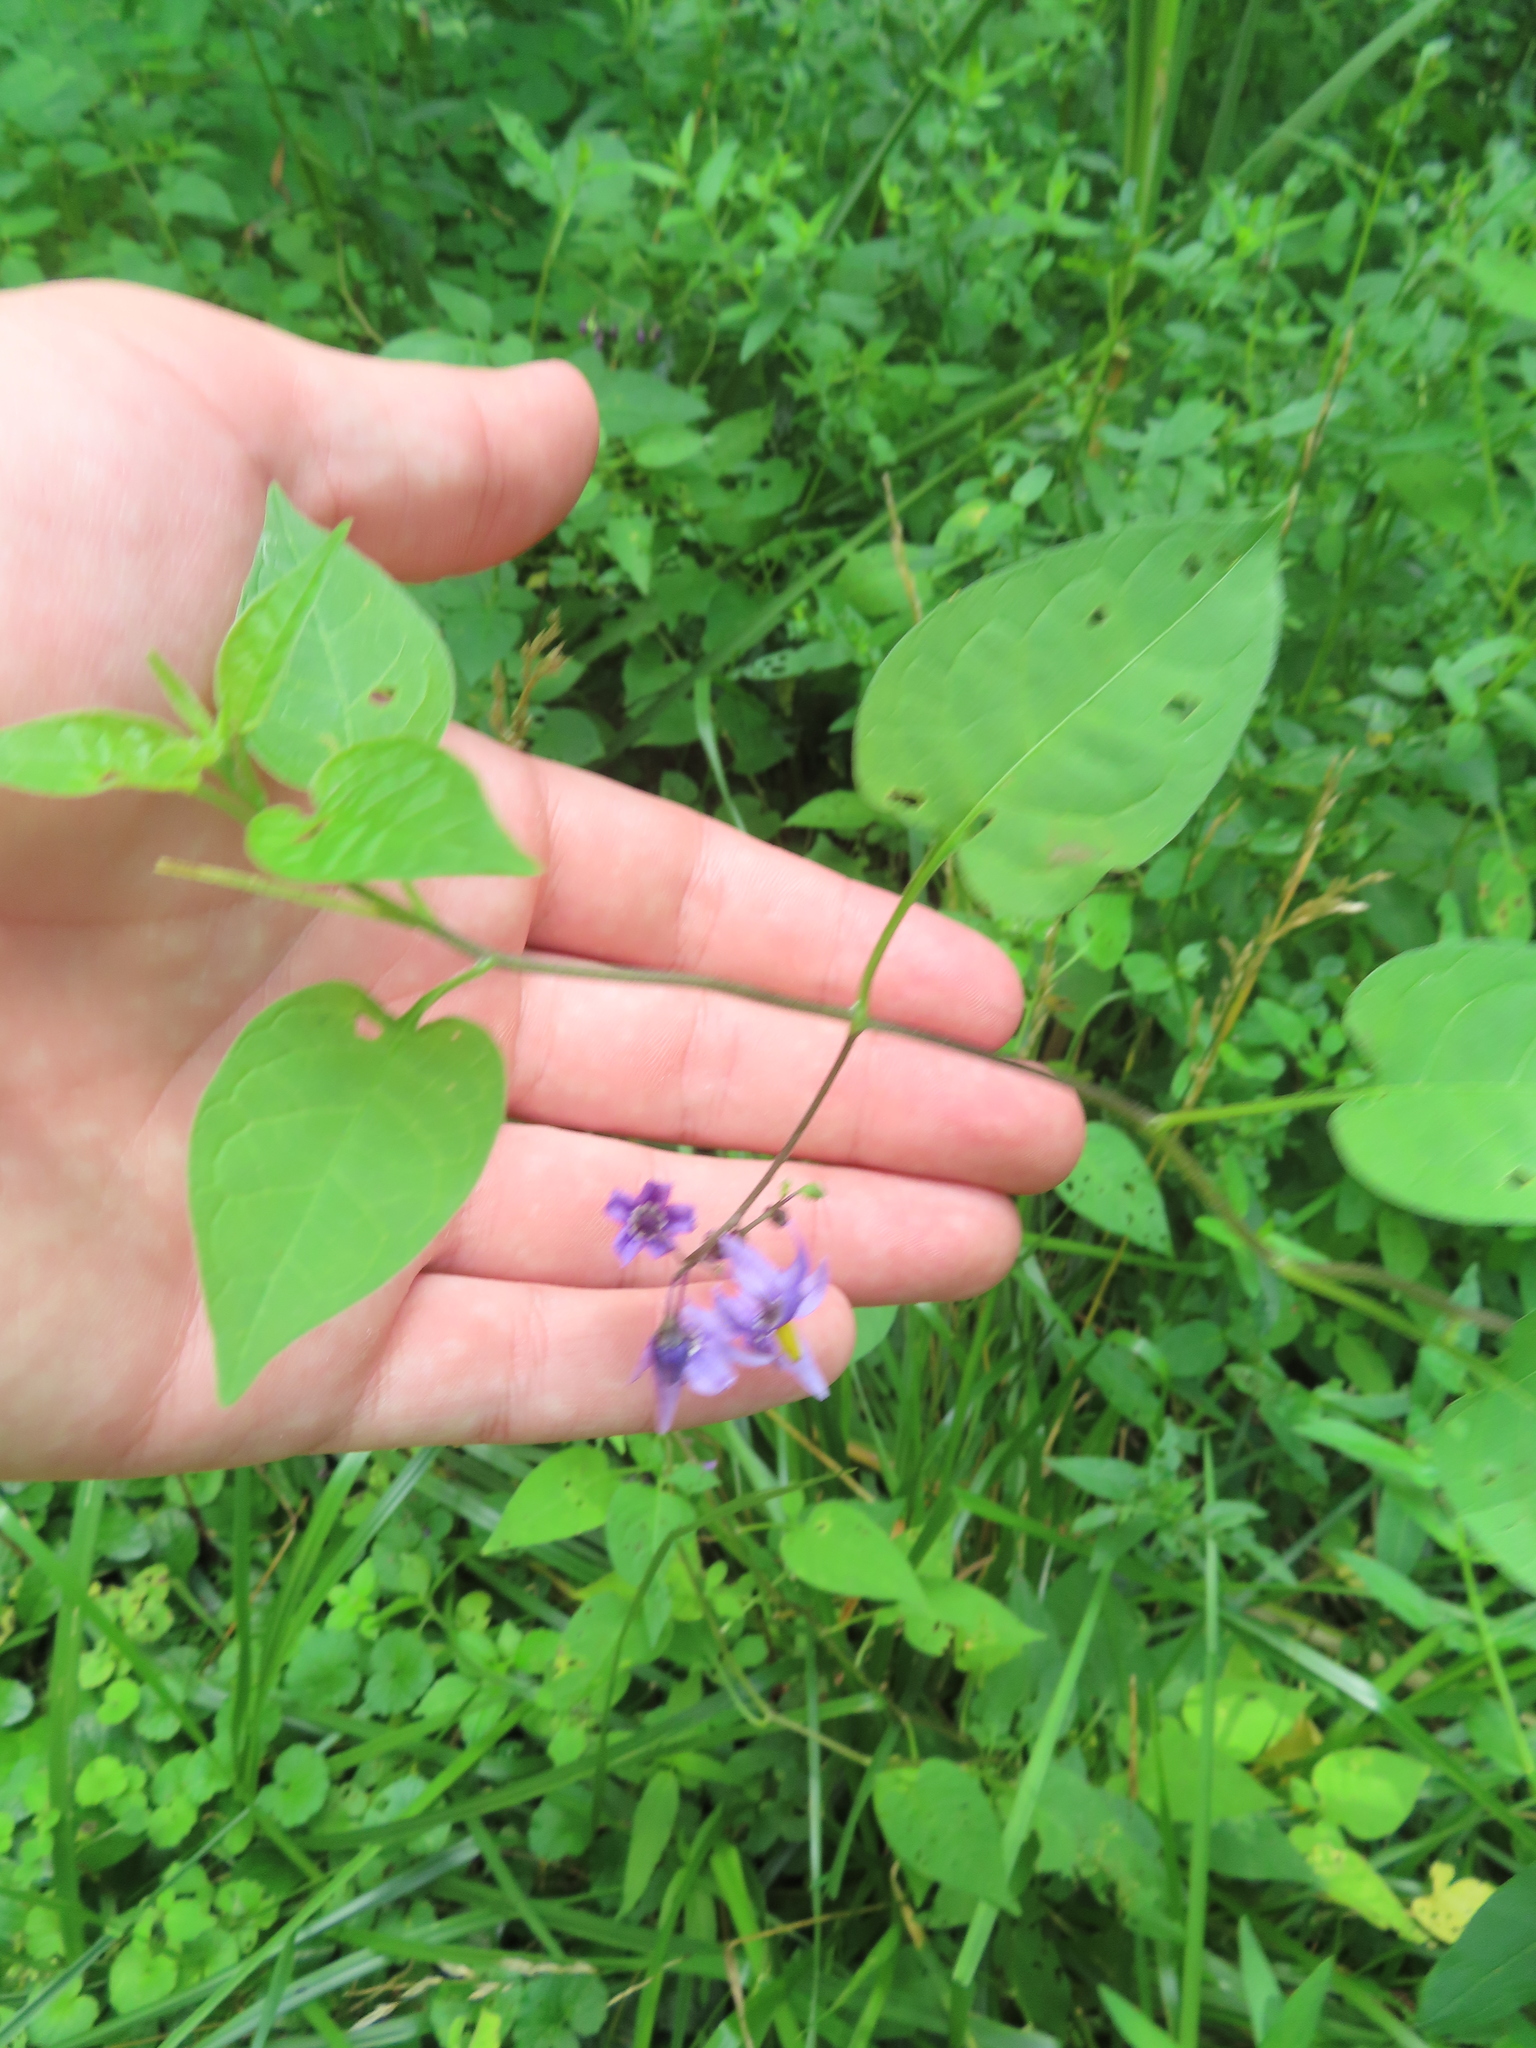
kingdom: Plantae
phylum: Tracheophyta
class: Magnoliopsida
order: Solanales
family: Solanaceae
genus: Solanum
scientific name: Solanum dulcamara
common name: Climbing nightshade
